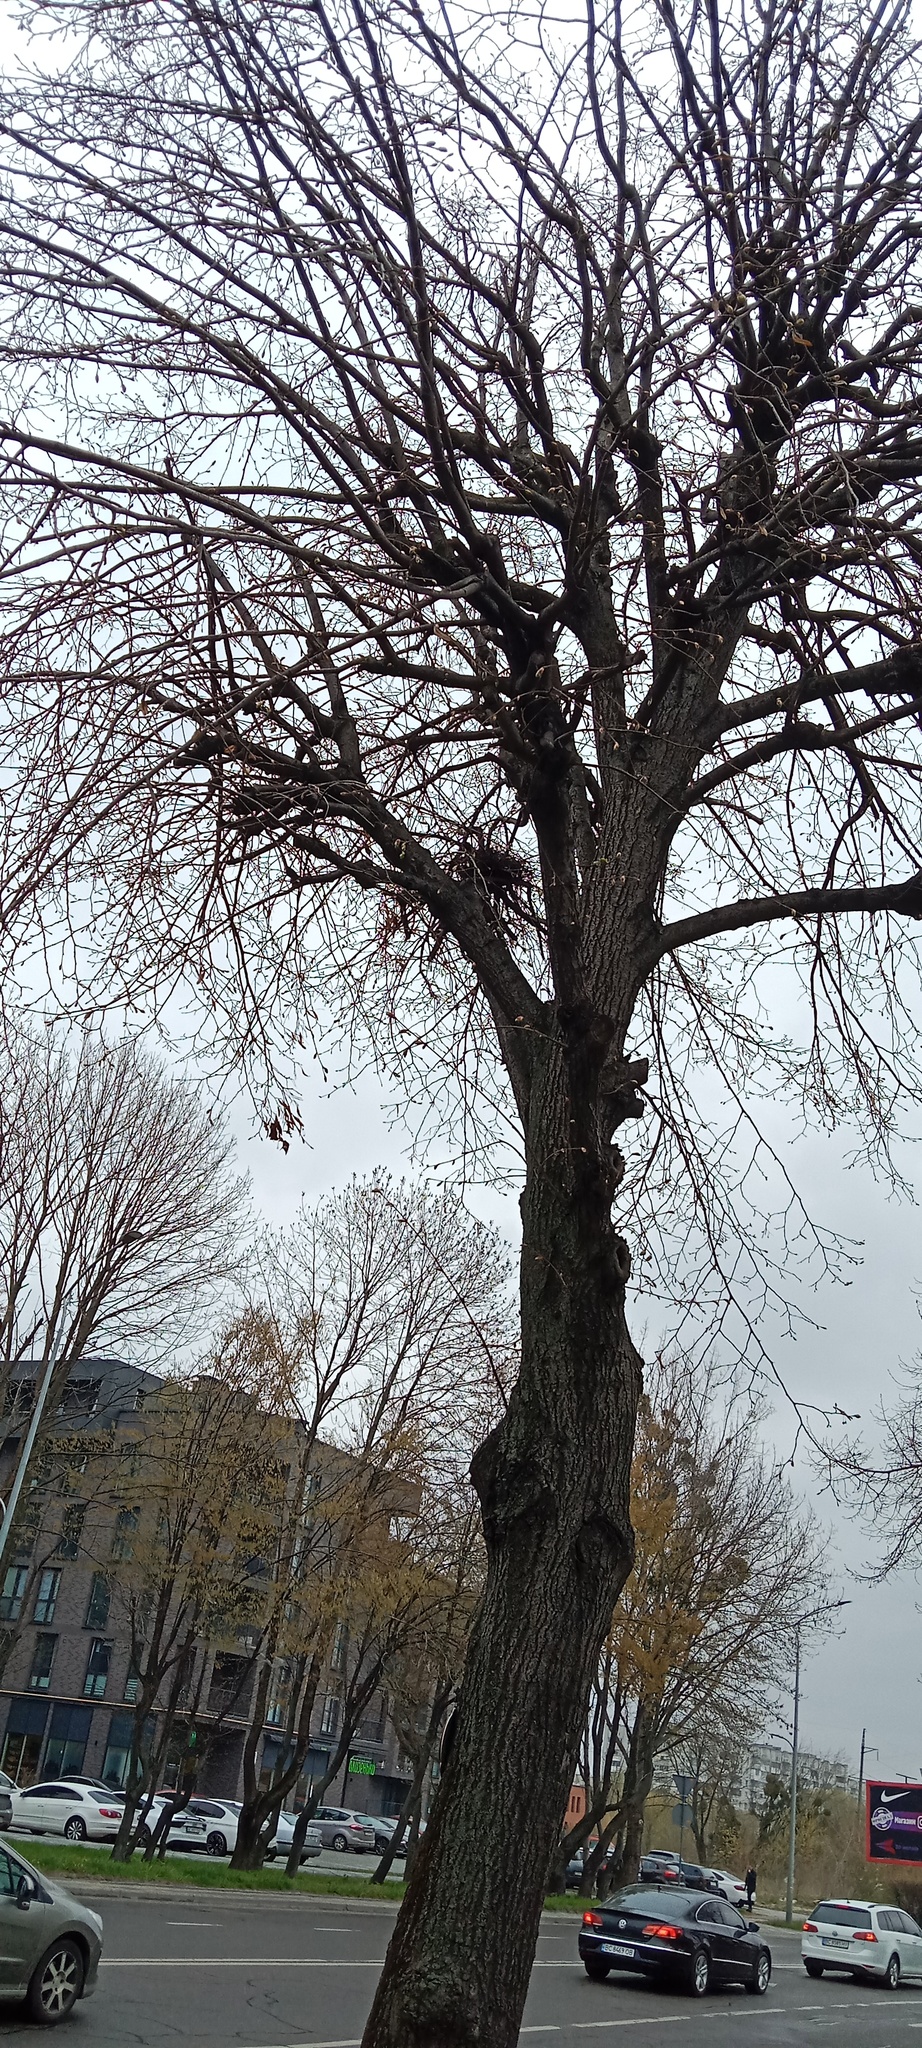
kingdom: Plantae
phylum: Tracheophyta
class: Magnoliopsida
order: Santalales
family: Viscaceae
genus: Viscum
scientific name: Viscum album
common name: Mistletoe
